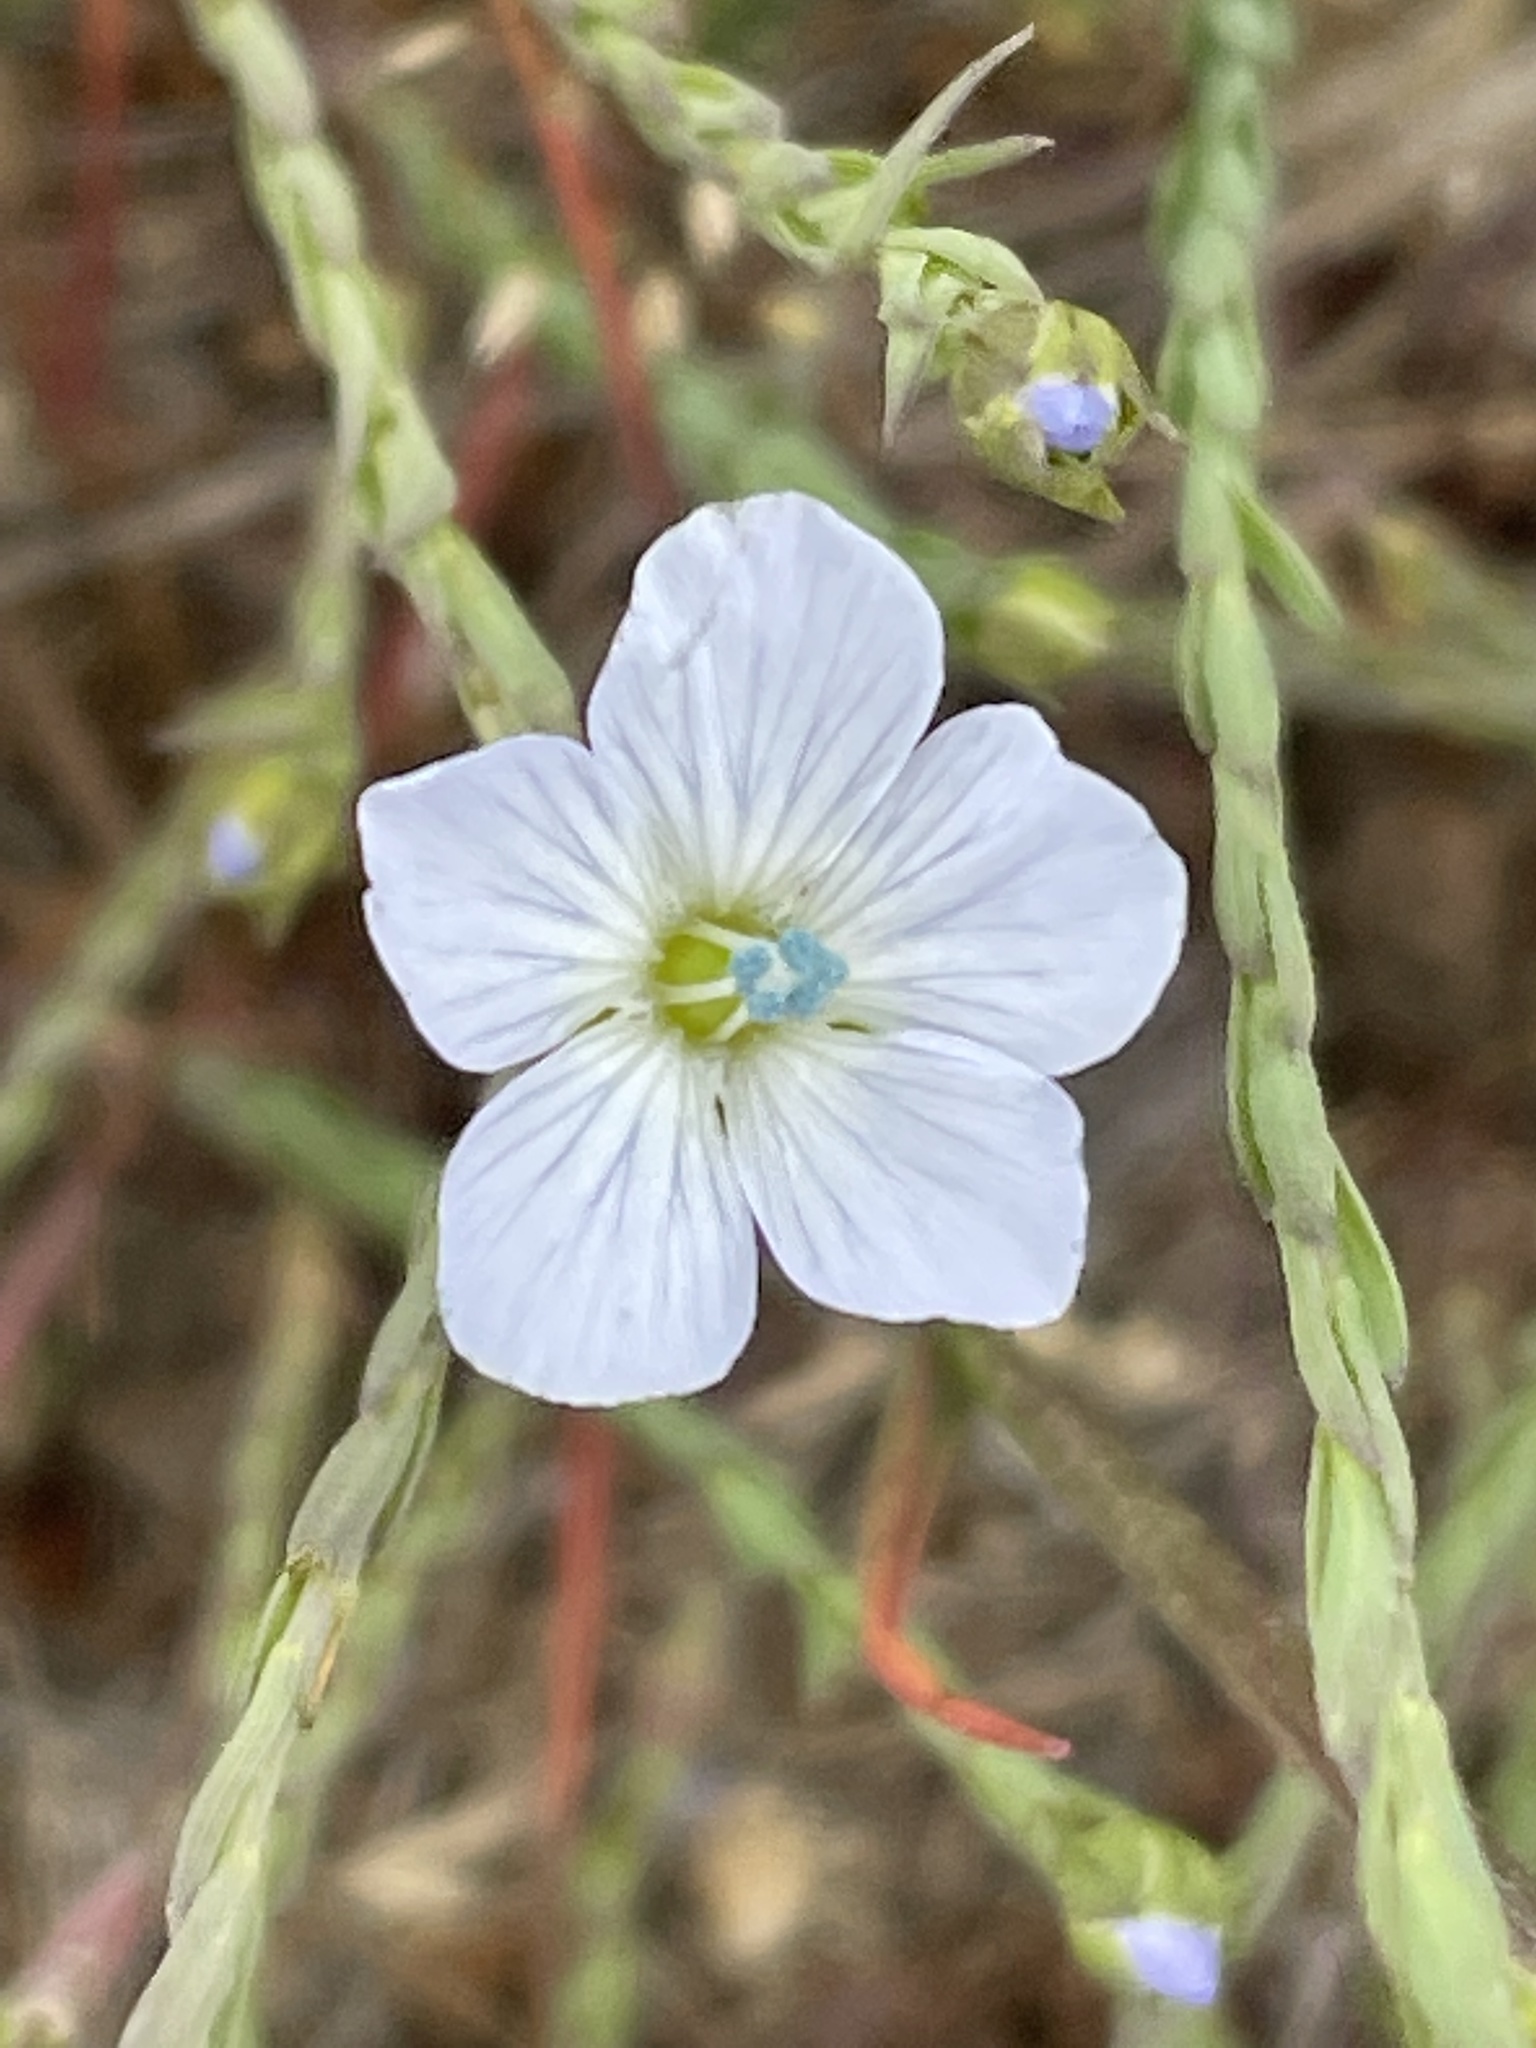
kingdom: Plantae
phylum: Tracheophyta
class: Magnoliopsida
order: Malpighiales
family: Linaceae
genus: Linum
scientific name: Linum bienne
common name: Pale flax
